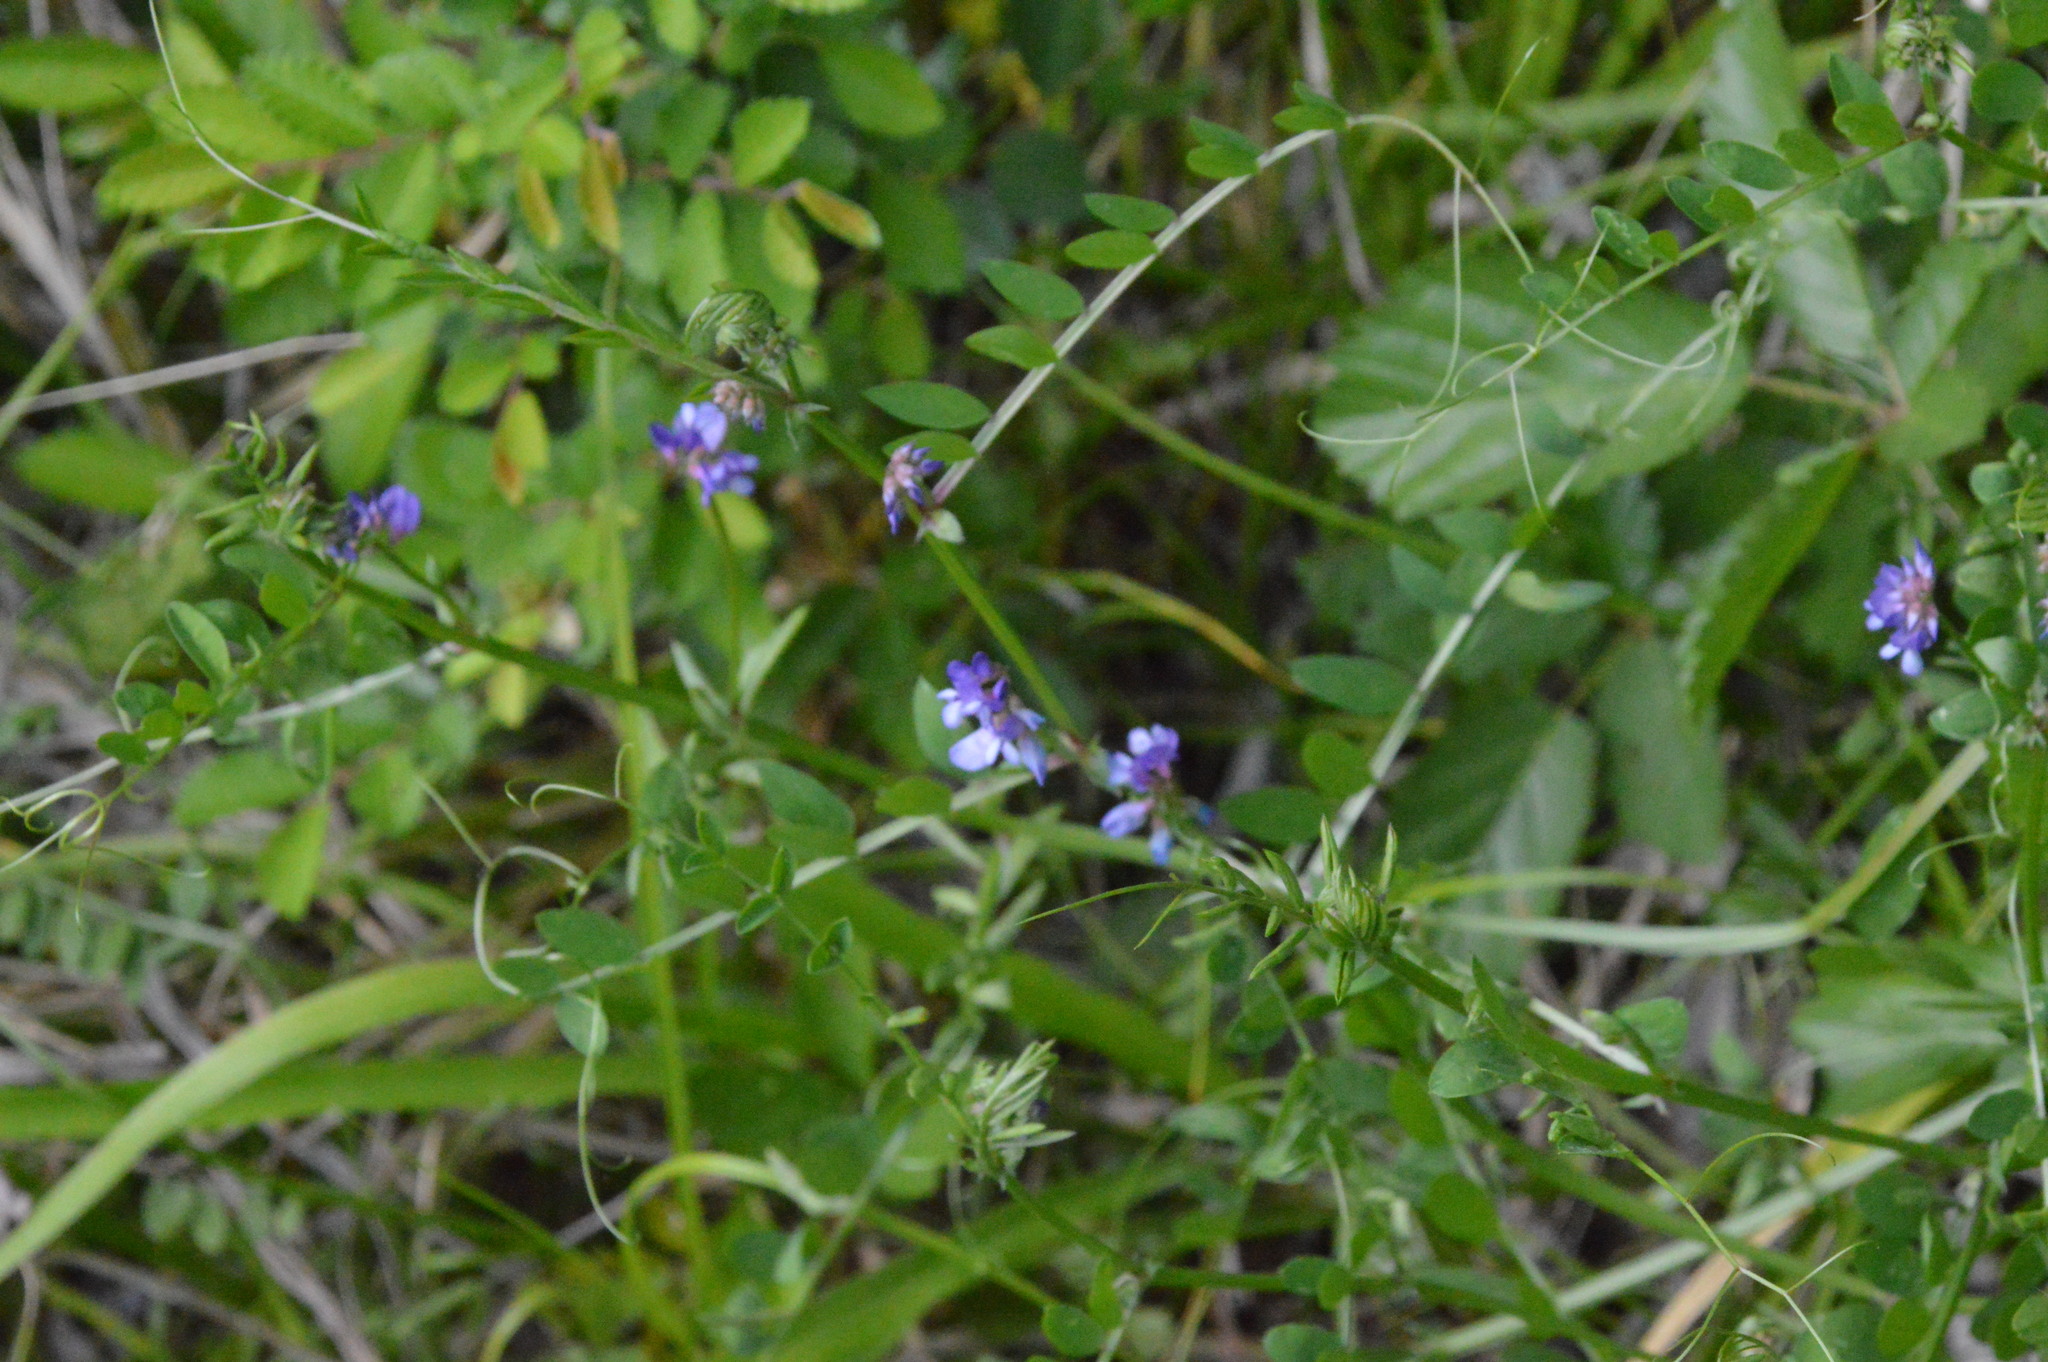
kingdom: Plantae
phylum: Tracheophyta
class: Magnoliopsida
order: Fabales
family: Fabaceae
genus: Vicia
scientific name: Vicia ludoviciana
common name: Louisiana vetch
